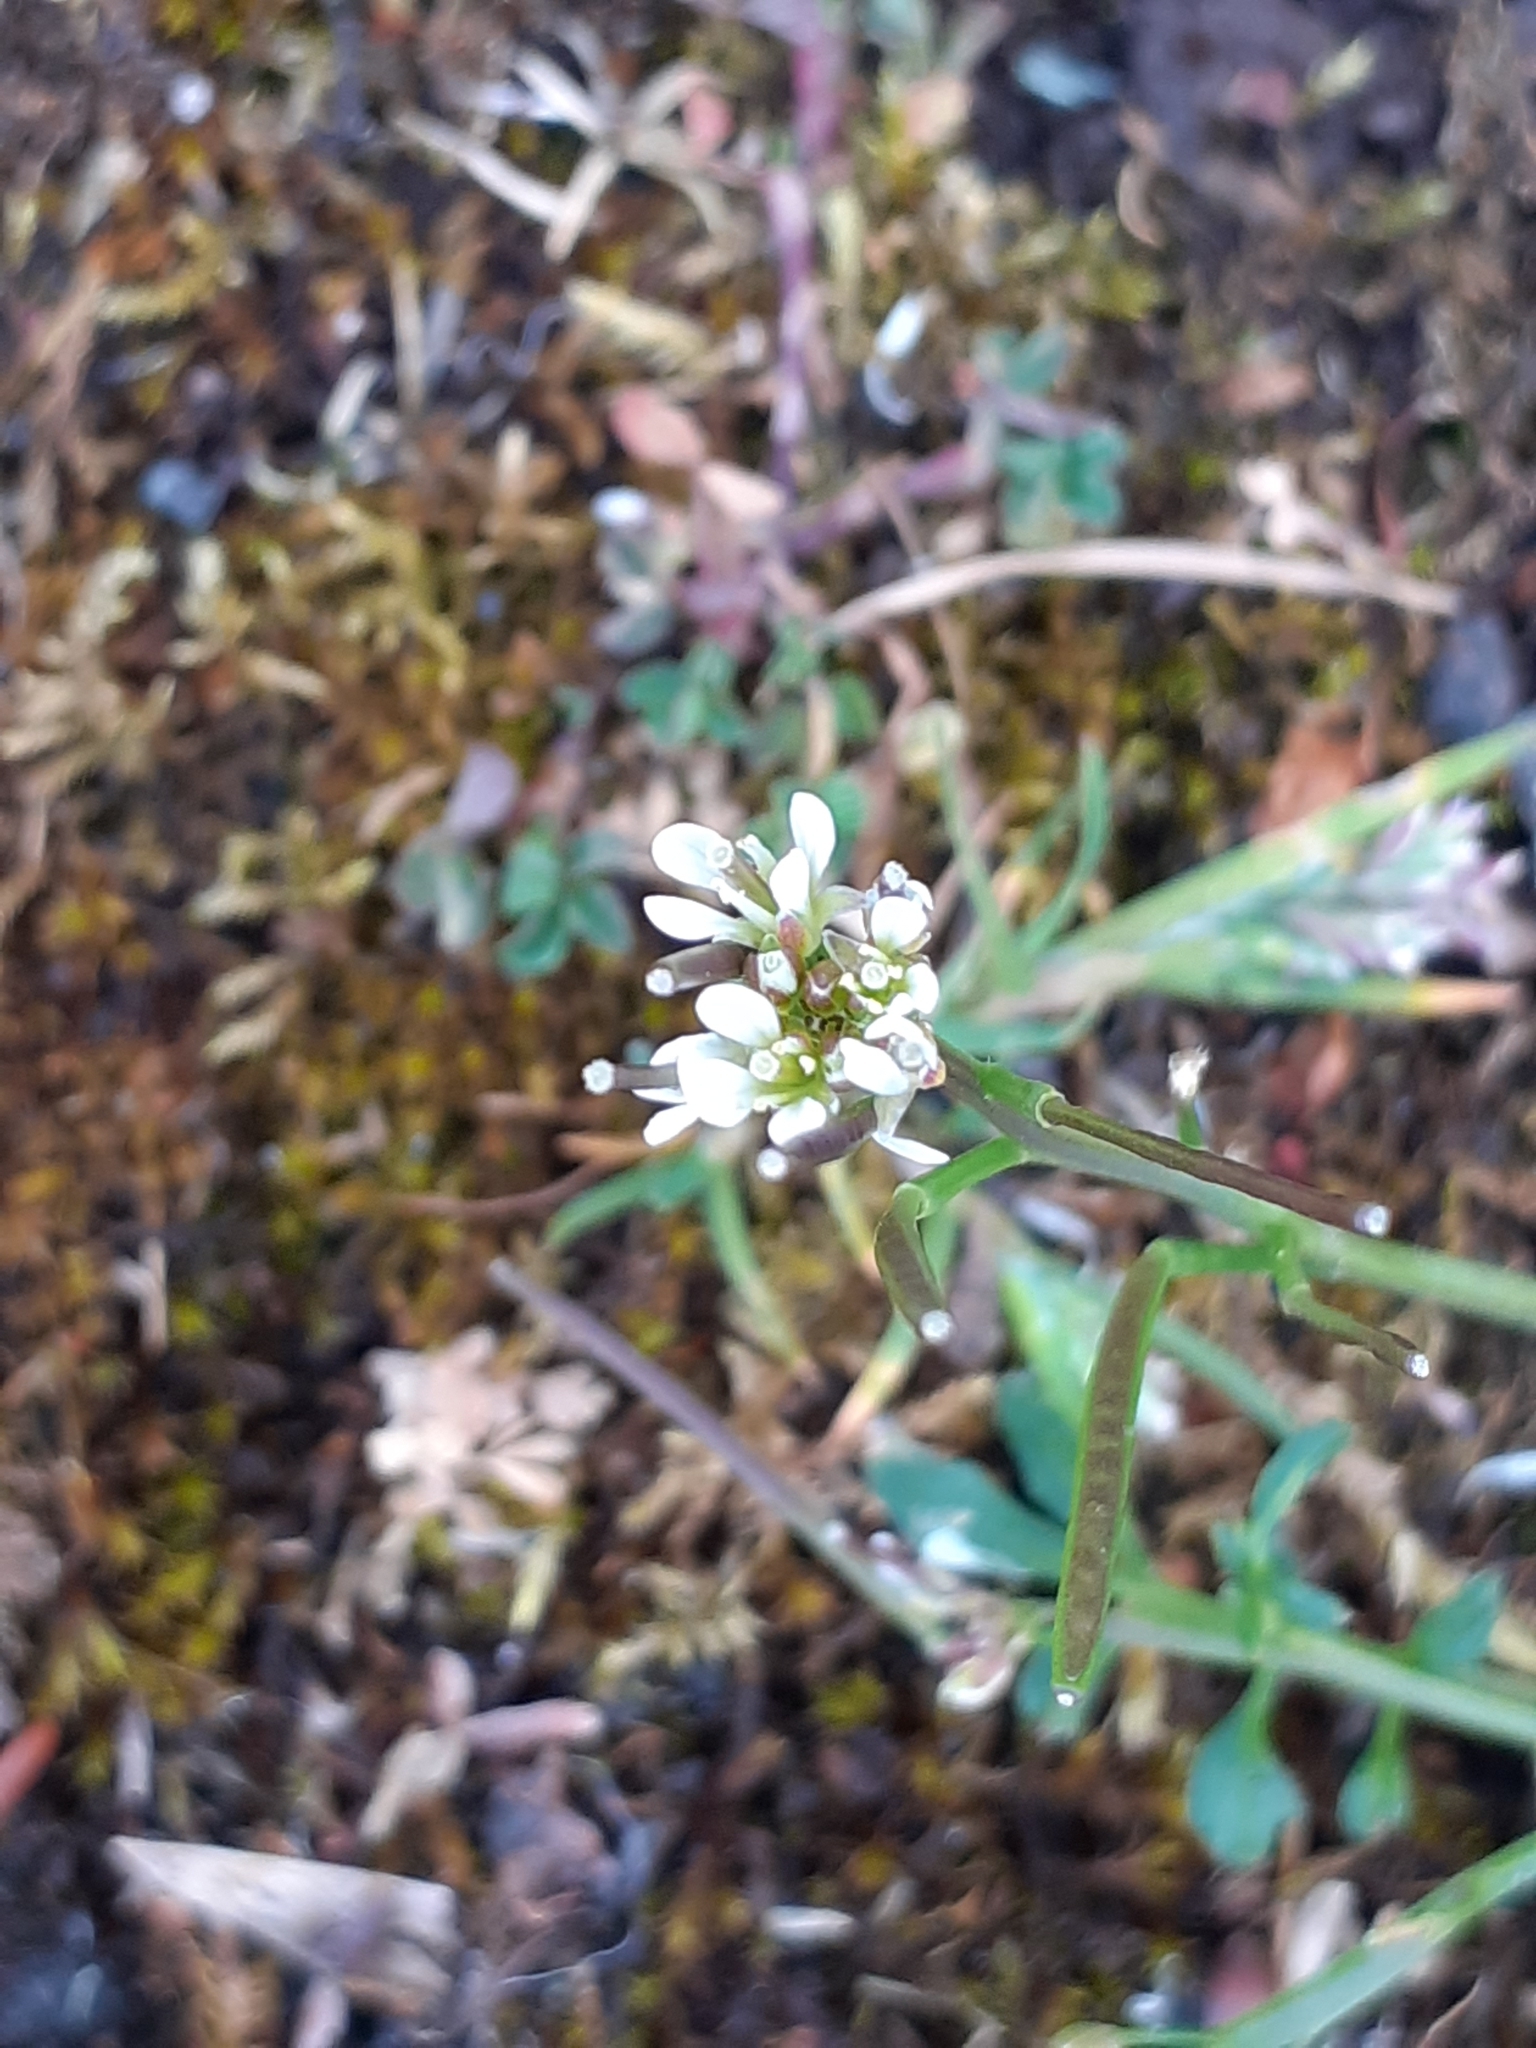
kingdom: Plantae
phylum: Tracheophyta
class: Magnoliopsida
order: Brassicales
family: Brassicaceae
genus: Cardamine
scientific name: Cardamine flexuosa
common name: Woodland bittercress
